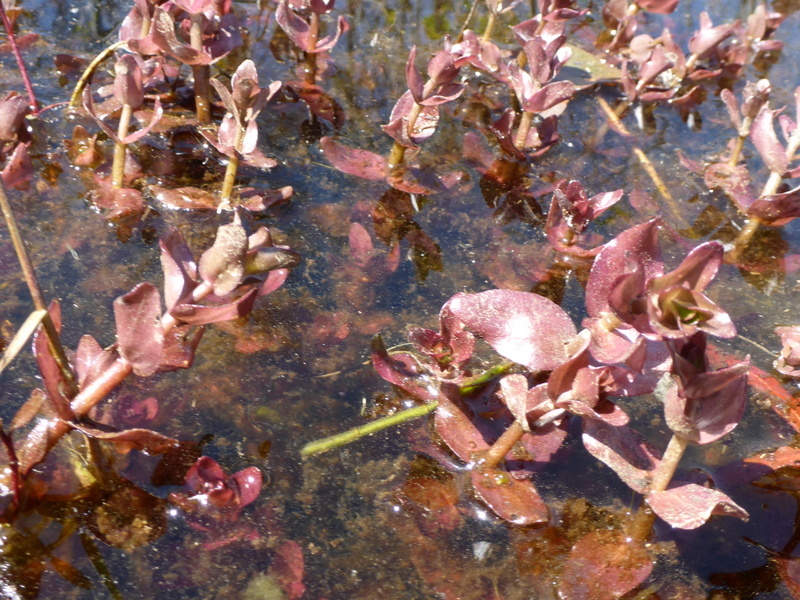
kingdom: Plantae
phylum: Tracheophyta
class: Magnoliopsida
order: Lamiales
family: Plantaginaceae
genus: Bacopa
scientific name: Bacopa caroliniana
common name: Lemon bacopa
